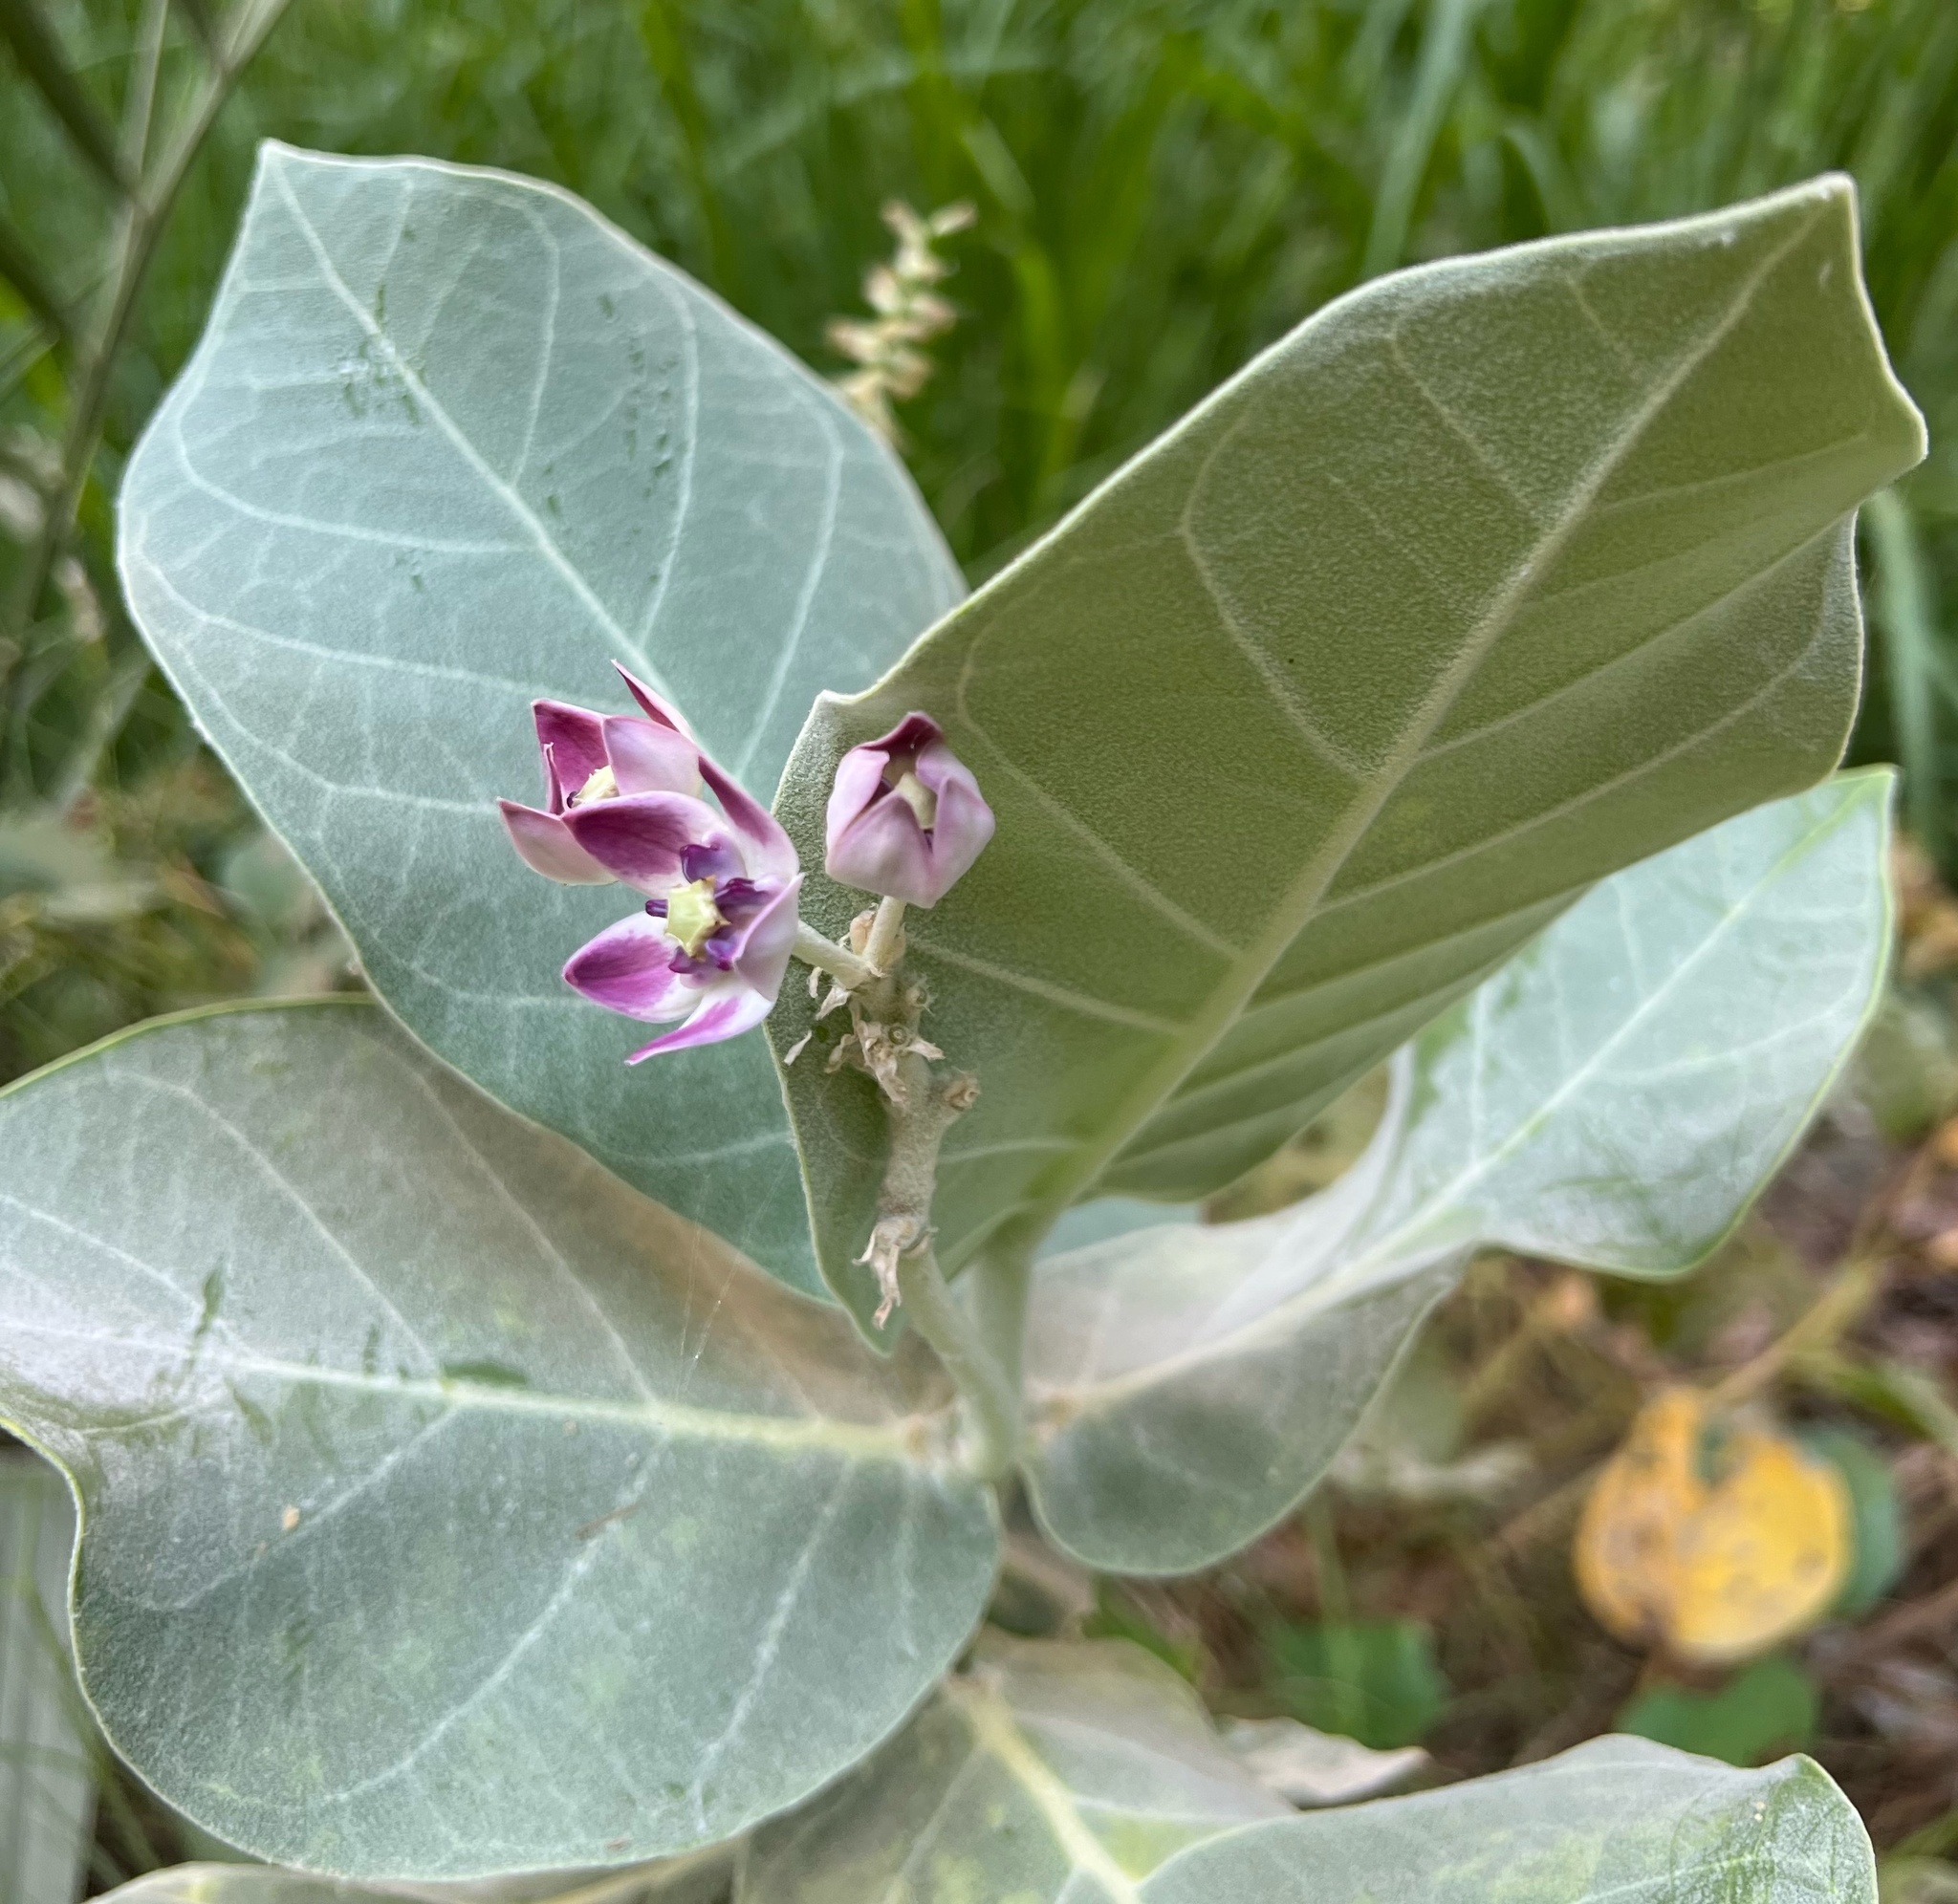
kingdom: Plantae
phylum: Tracheophyta
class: Magnoliopsida
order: Gentianales
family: Apocynaceae
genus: Calotropis
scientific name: Calotropis procera
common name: Roostertree
